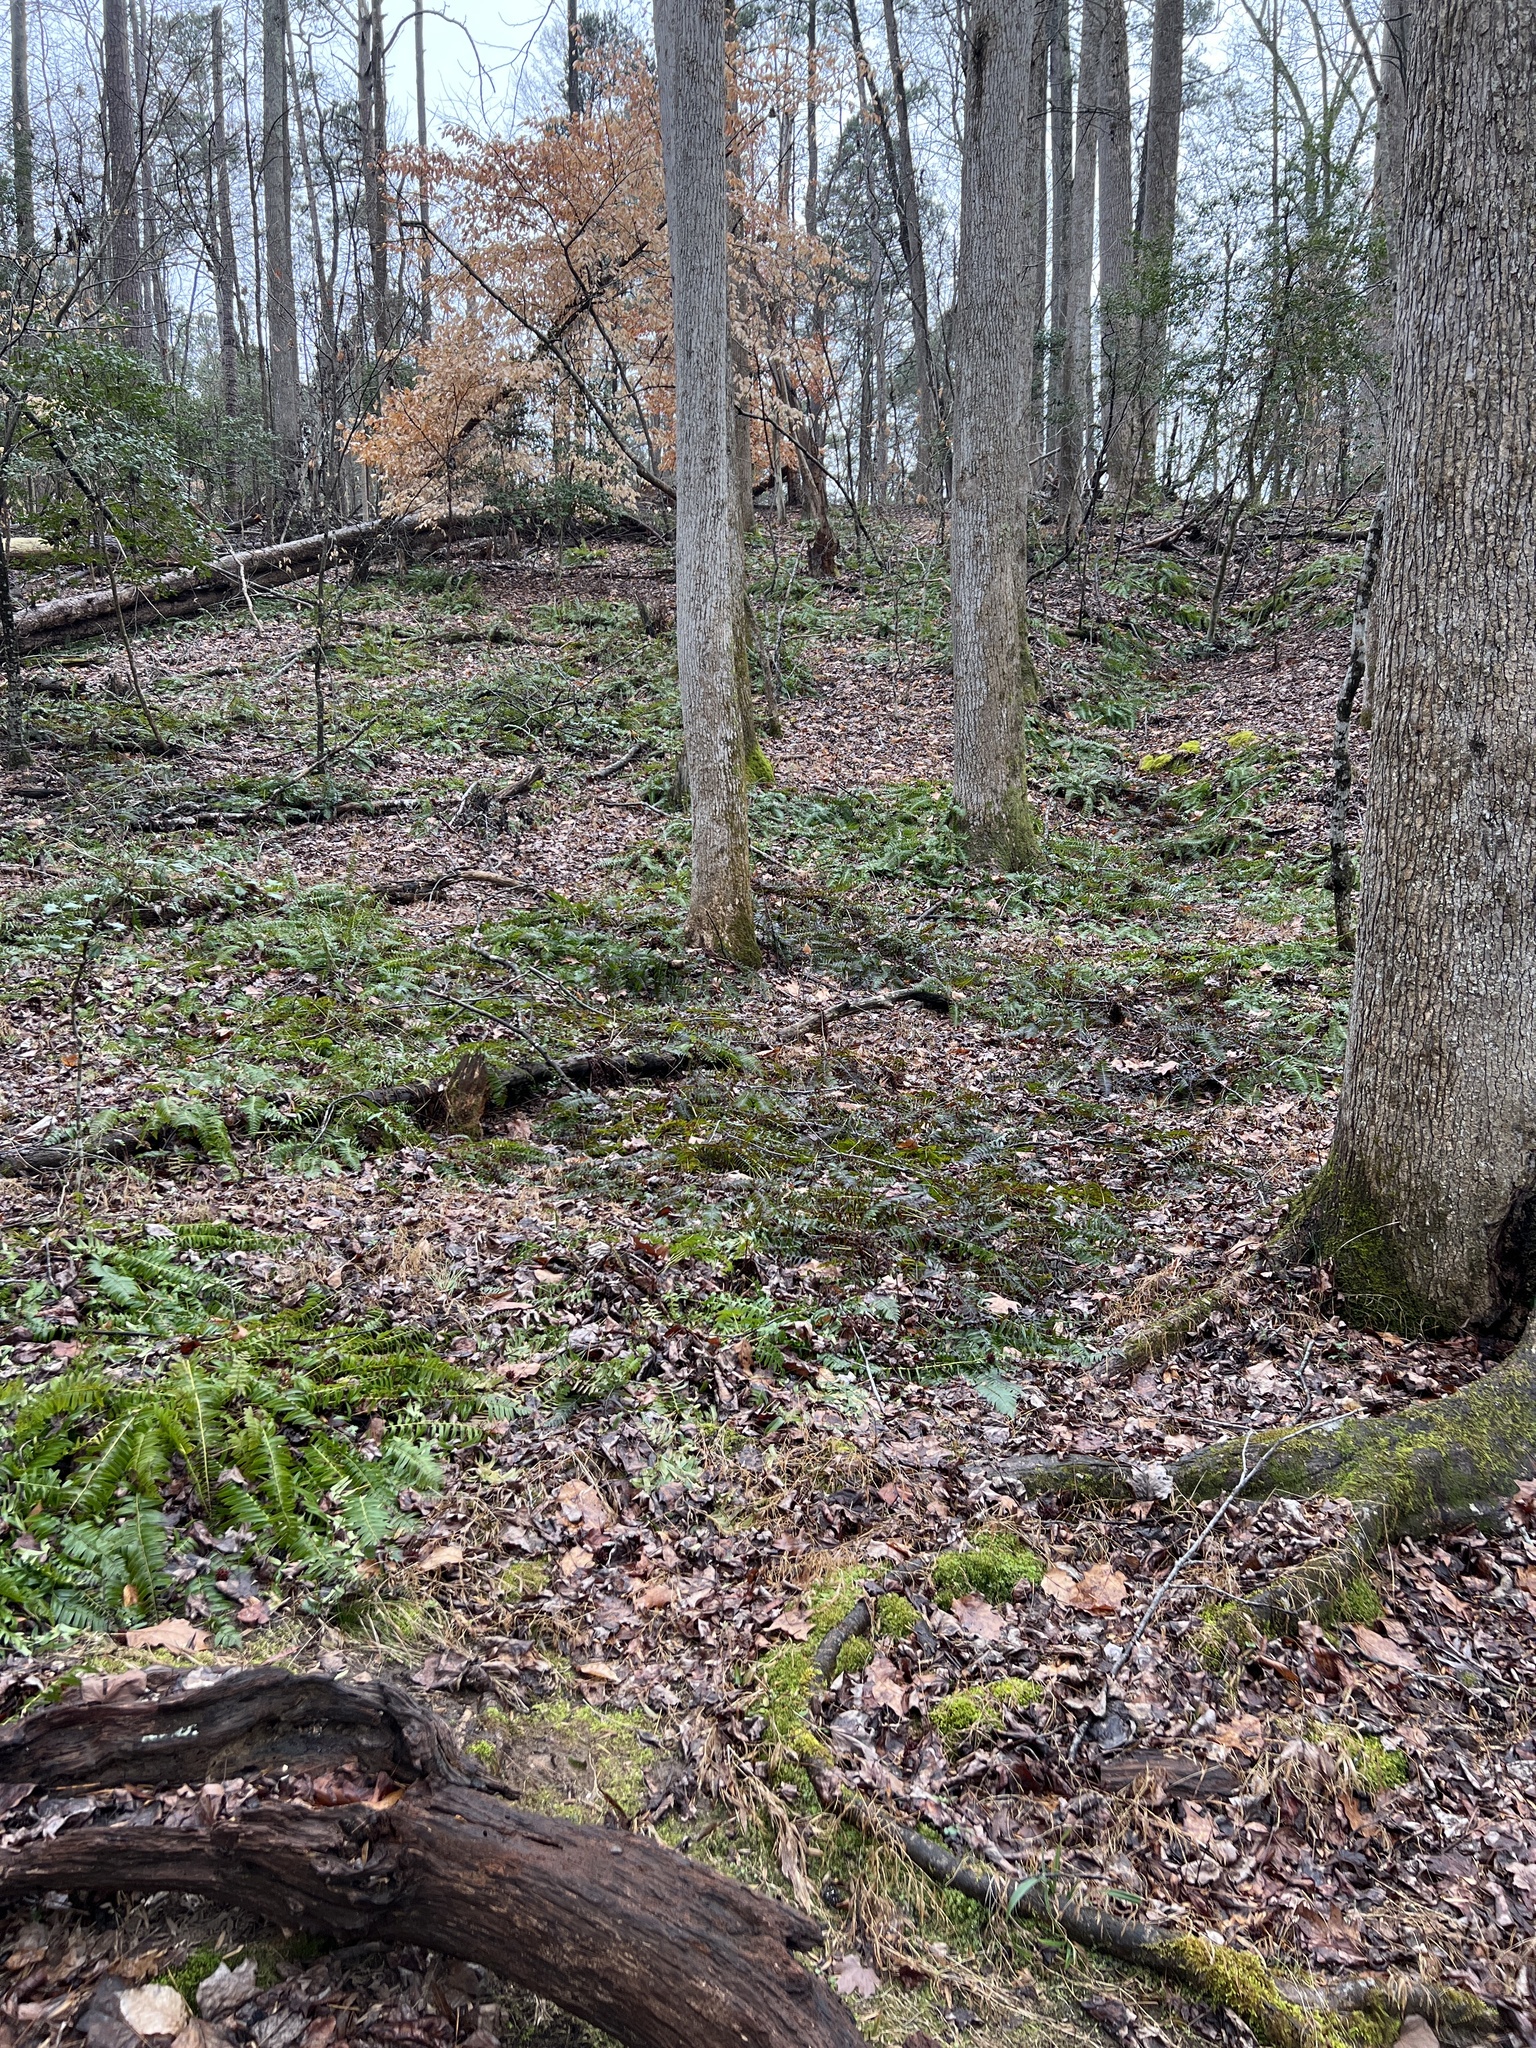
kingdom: Plantae
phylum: Tracheophyta
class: Polypodiopsida
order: Polypodiales
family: Dryopteridaceae
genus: Polystichum
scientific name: Polystichum acrostichoides
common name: Christmas fern
